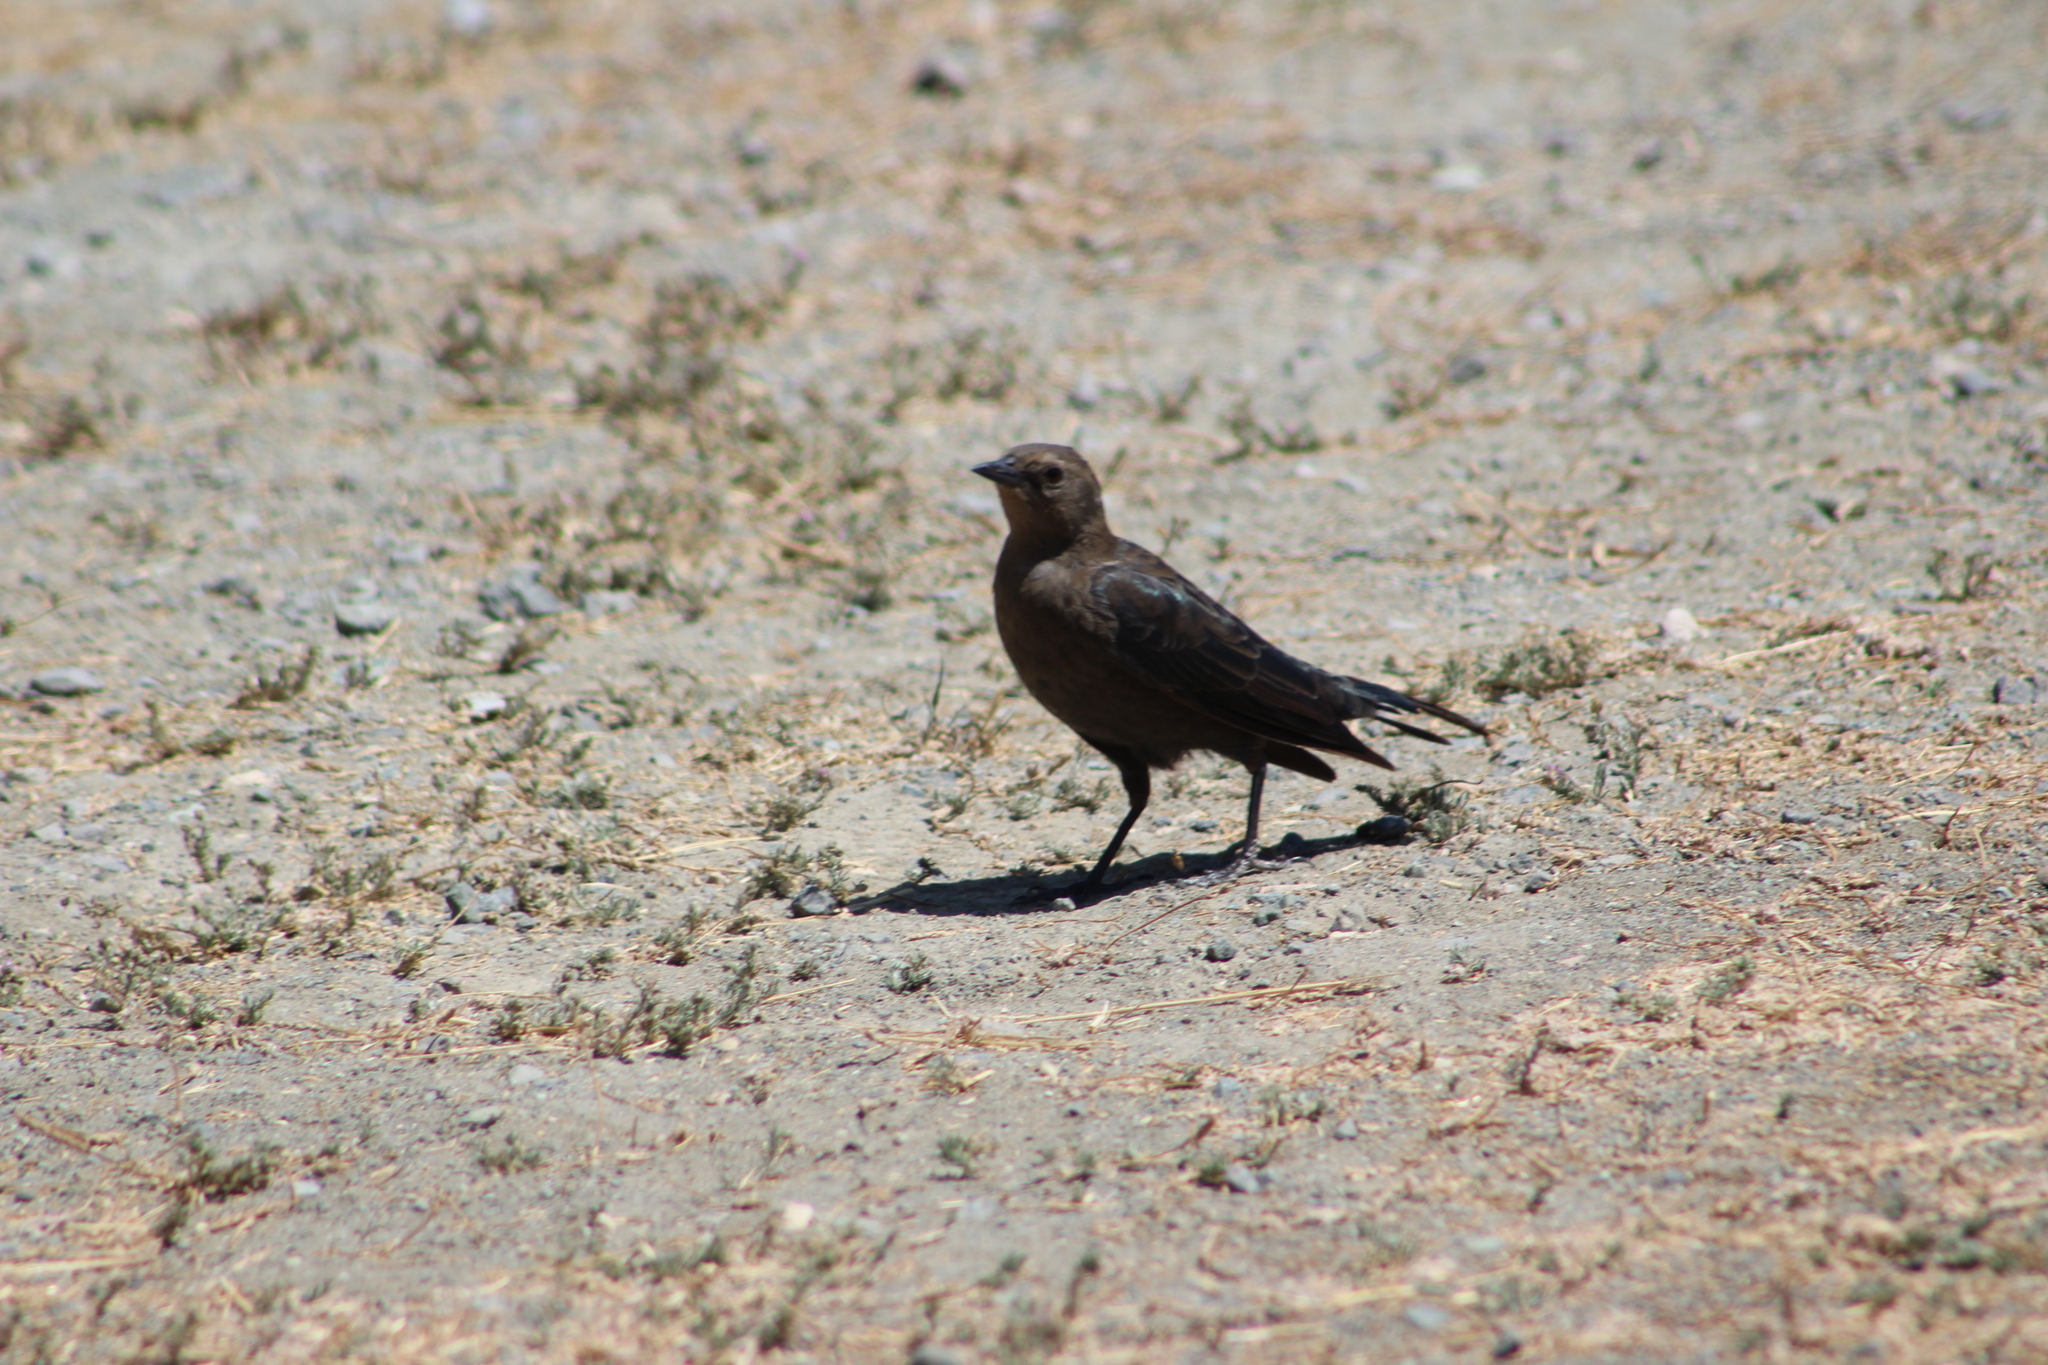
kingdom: Animalia
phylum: Chordata
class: Aves
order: Passeriformes
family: Icteridae
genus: Euphagus
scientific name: Euphagus cyanocephalus
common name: Brewer's blackbird
